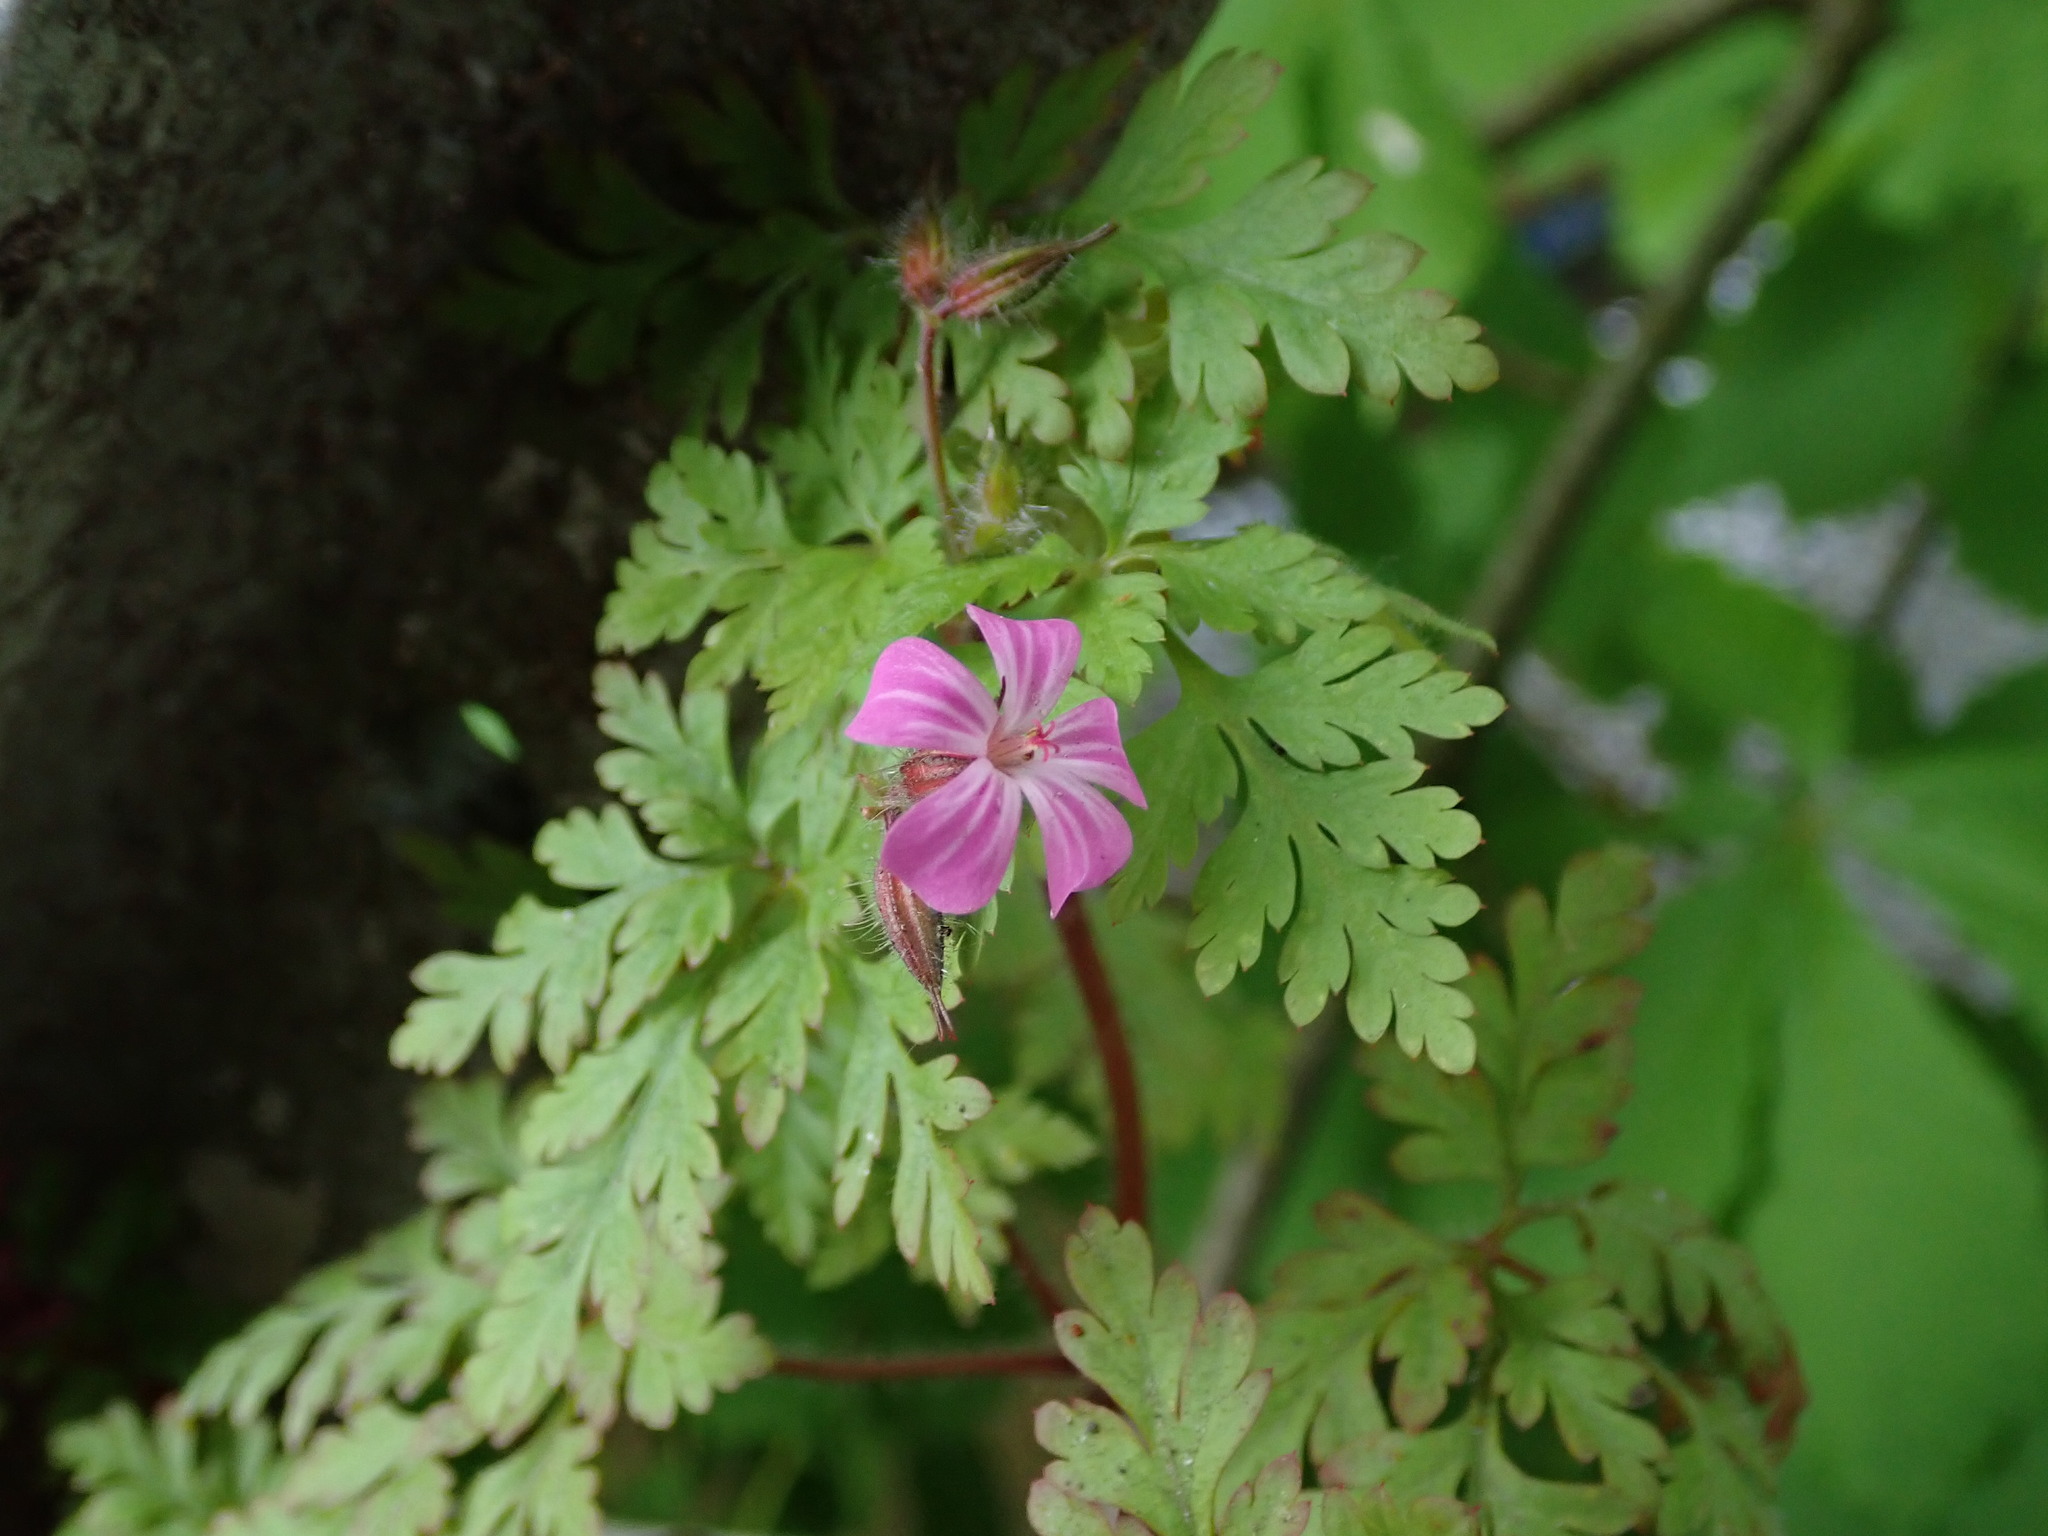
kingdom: Plantae
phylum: Tracheophyta
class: Magnoliopsida
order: Geraniales
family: Geraniaceae
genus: Geranium
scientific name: Geranium robertianum
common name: Herb-robert
